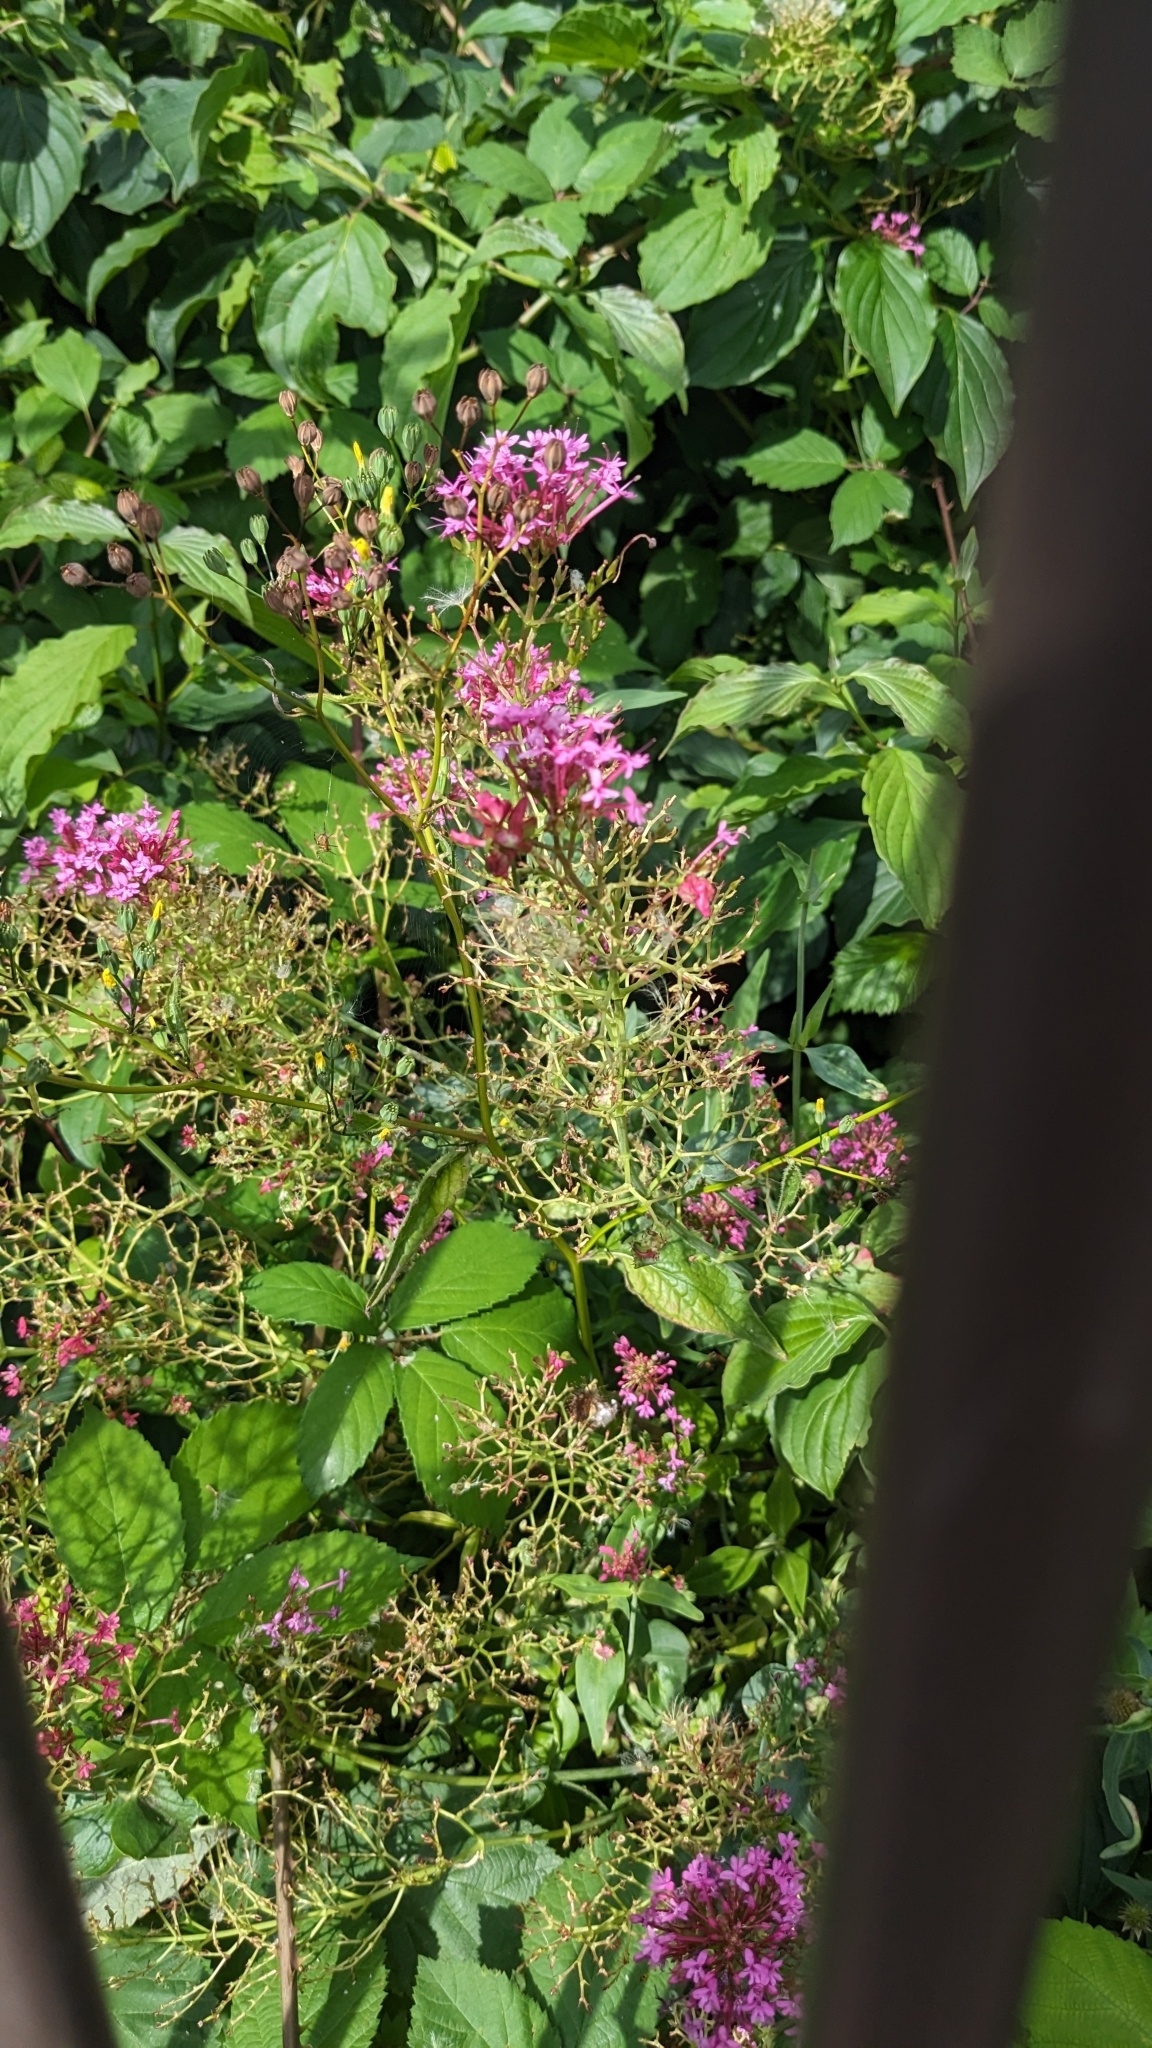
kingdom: Animalia
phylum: Arthropoda
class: Insecta
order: Hemiptera
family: Triozidae
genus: Trioza
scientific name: Trioza centranthi
